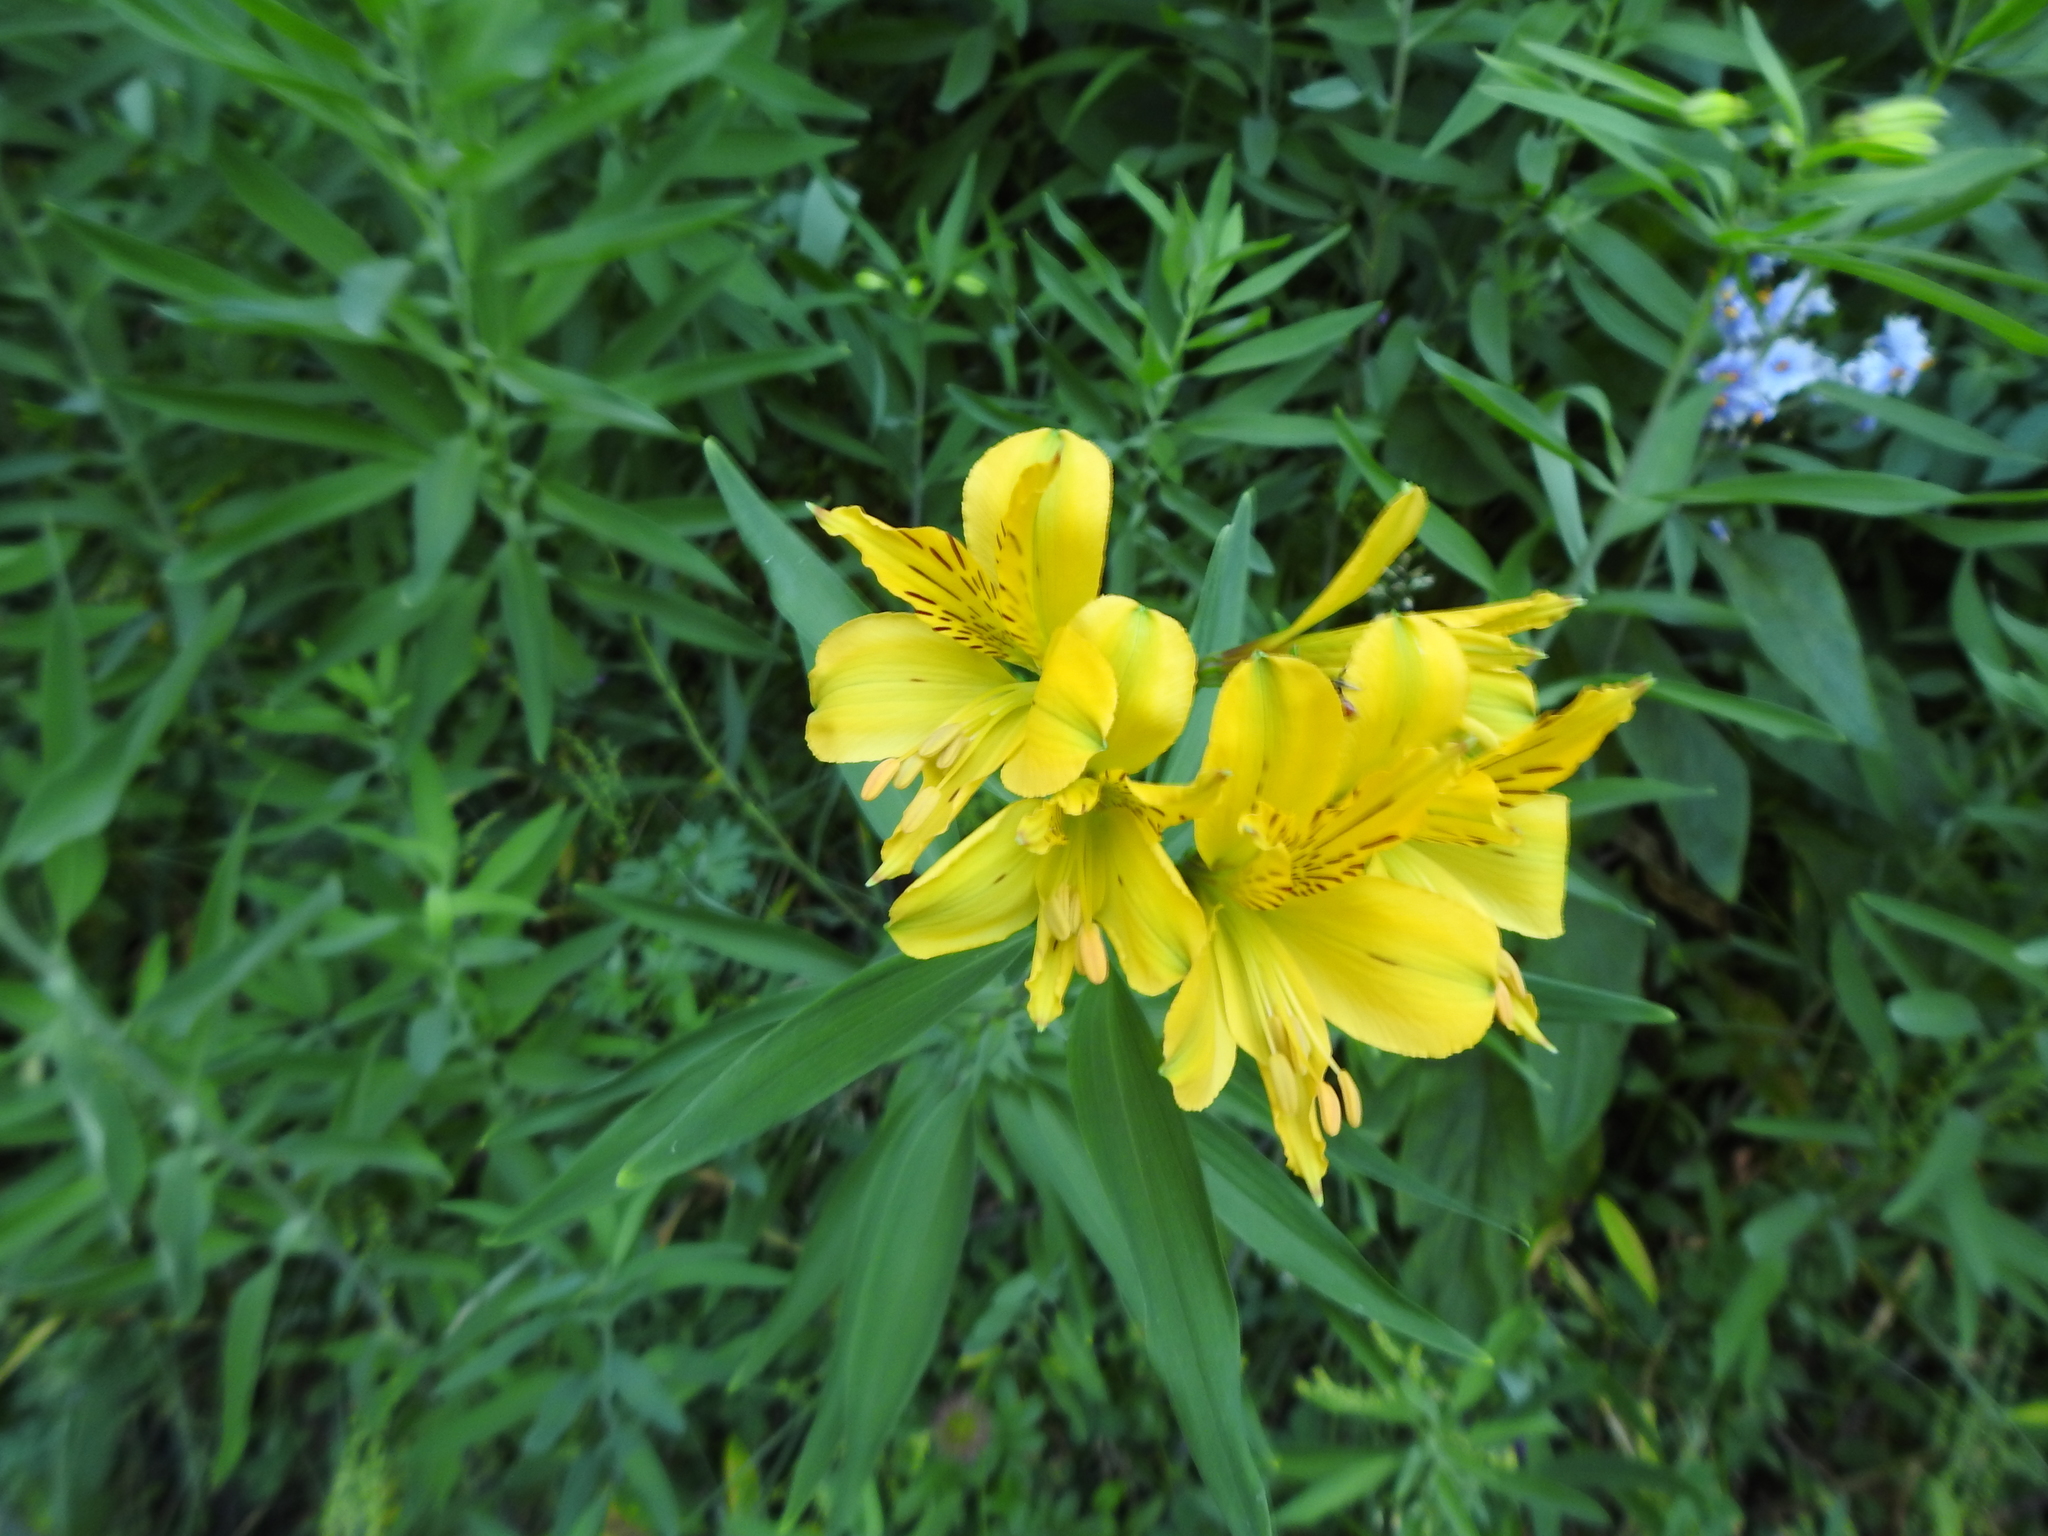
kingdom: Plantae
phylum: Tracheophyta
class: Liliopsida
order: Liliales
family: Alstroemeriaceae
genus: Alstroemeria
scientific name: Alstroemeria aurea
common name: Peruvian lily
